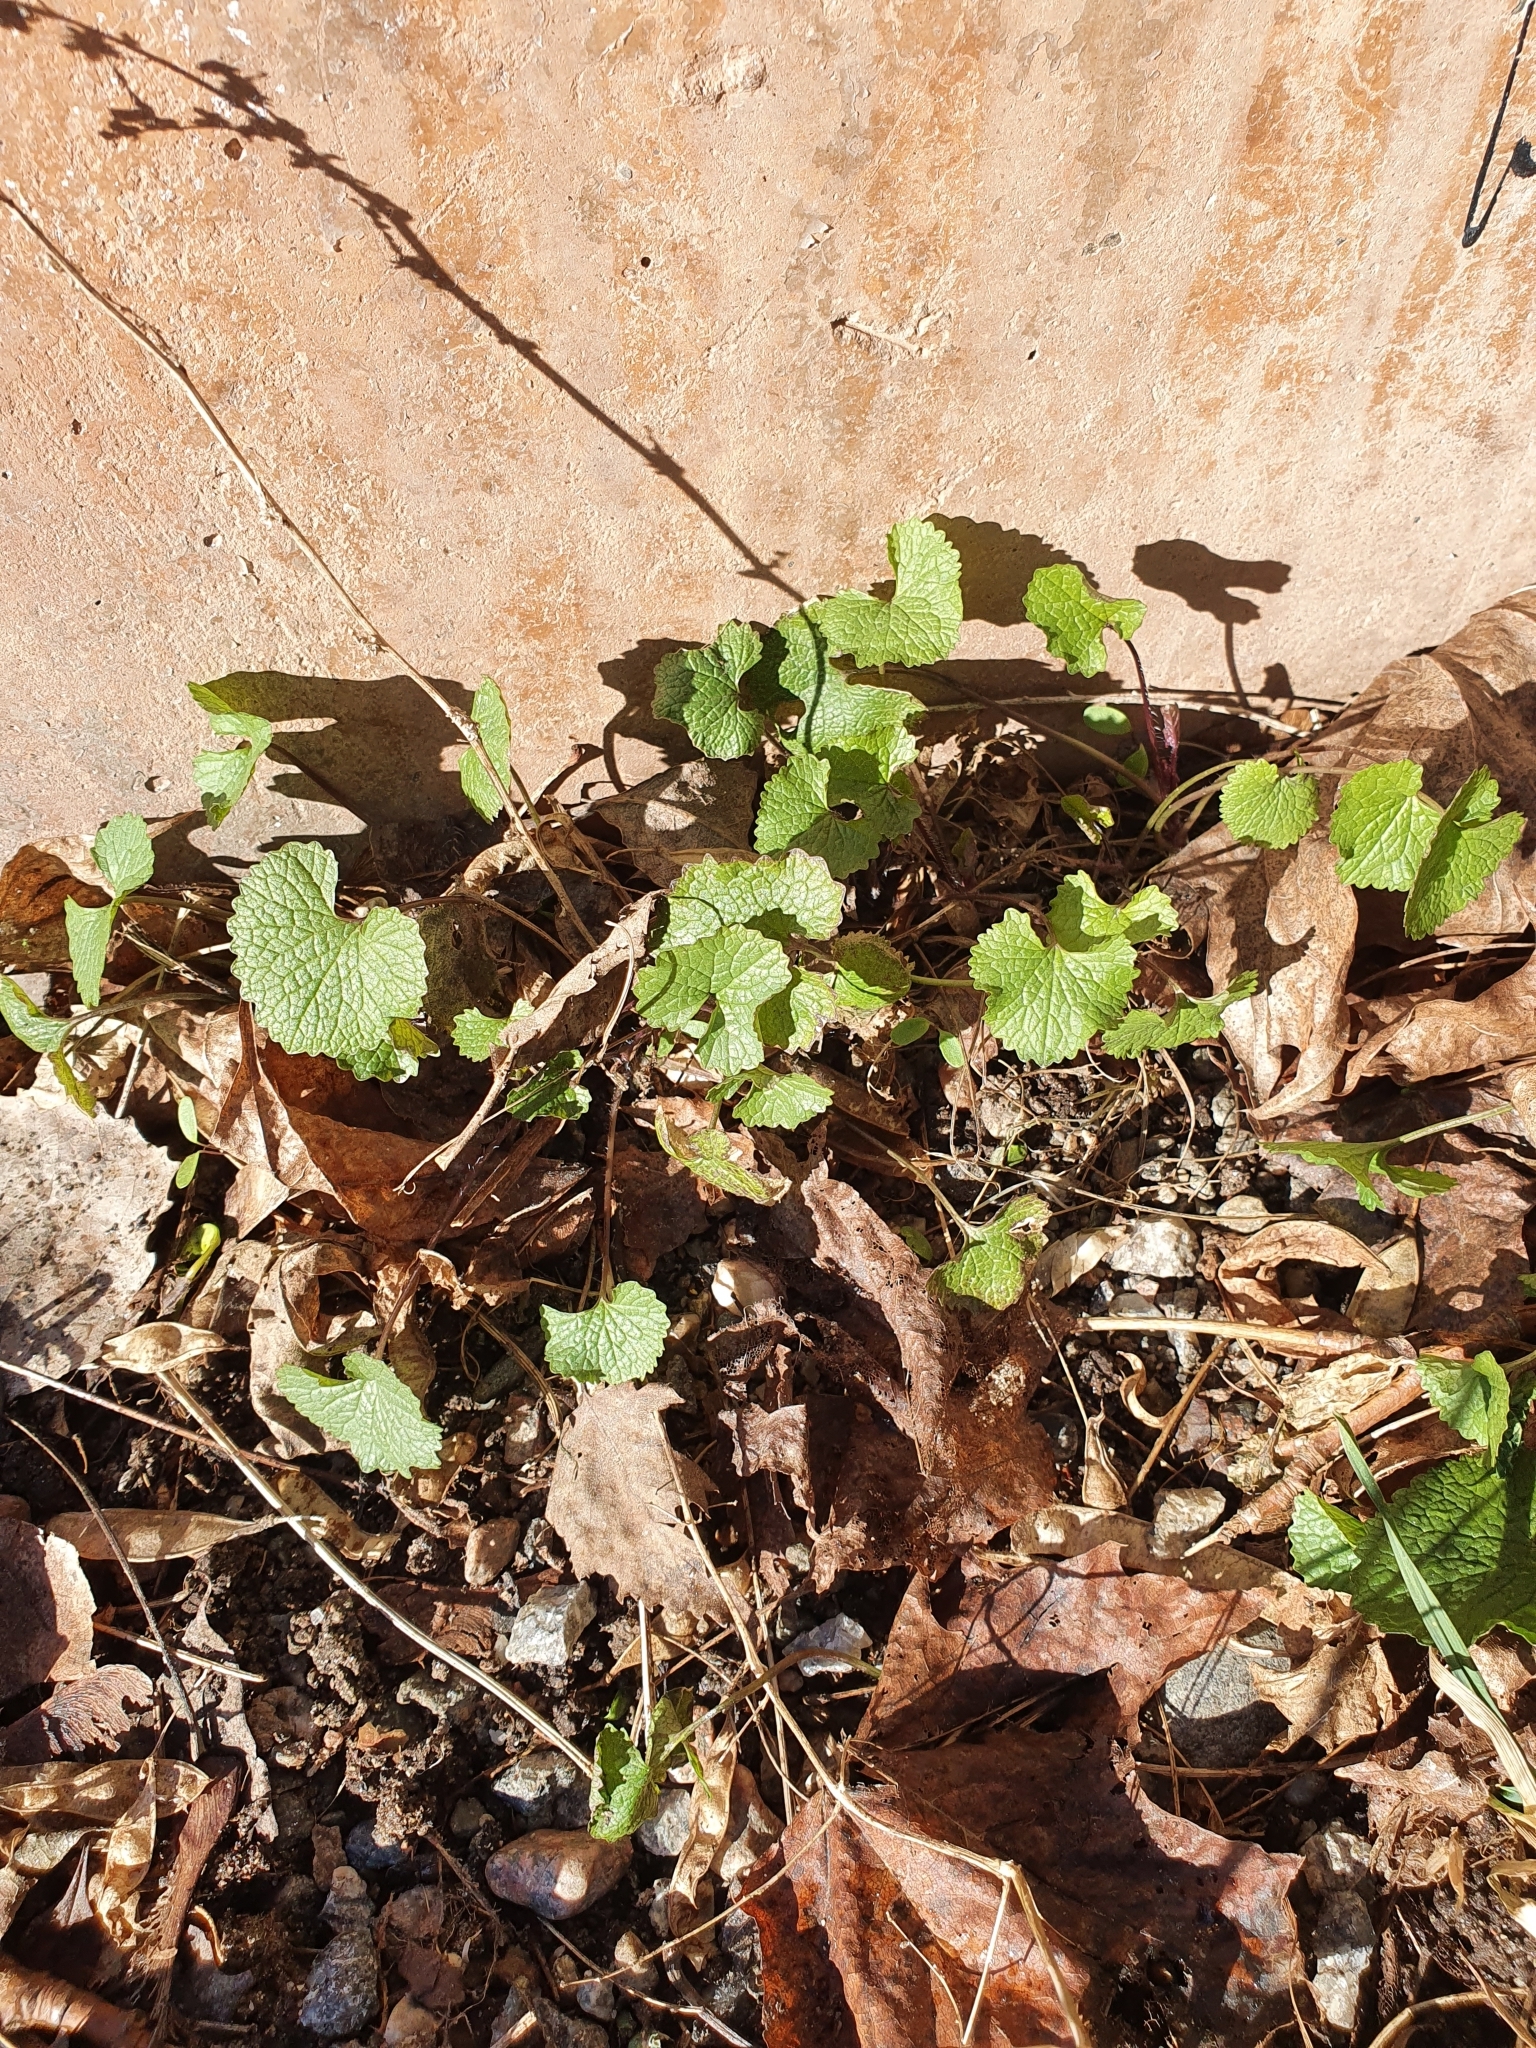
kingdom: Plantae
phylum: Tracheophyta
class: Magnoliopsida
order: Brassicales
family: Brassicaceae
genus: Alliaria
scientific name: Alliaria petiolata
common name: Garlic mustard
